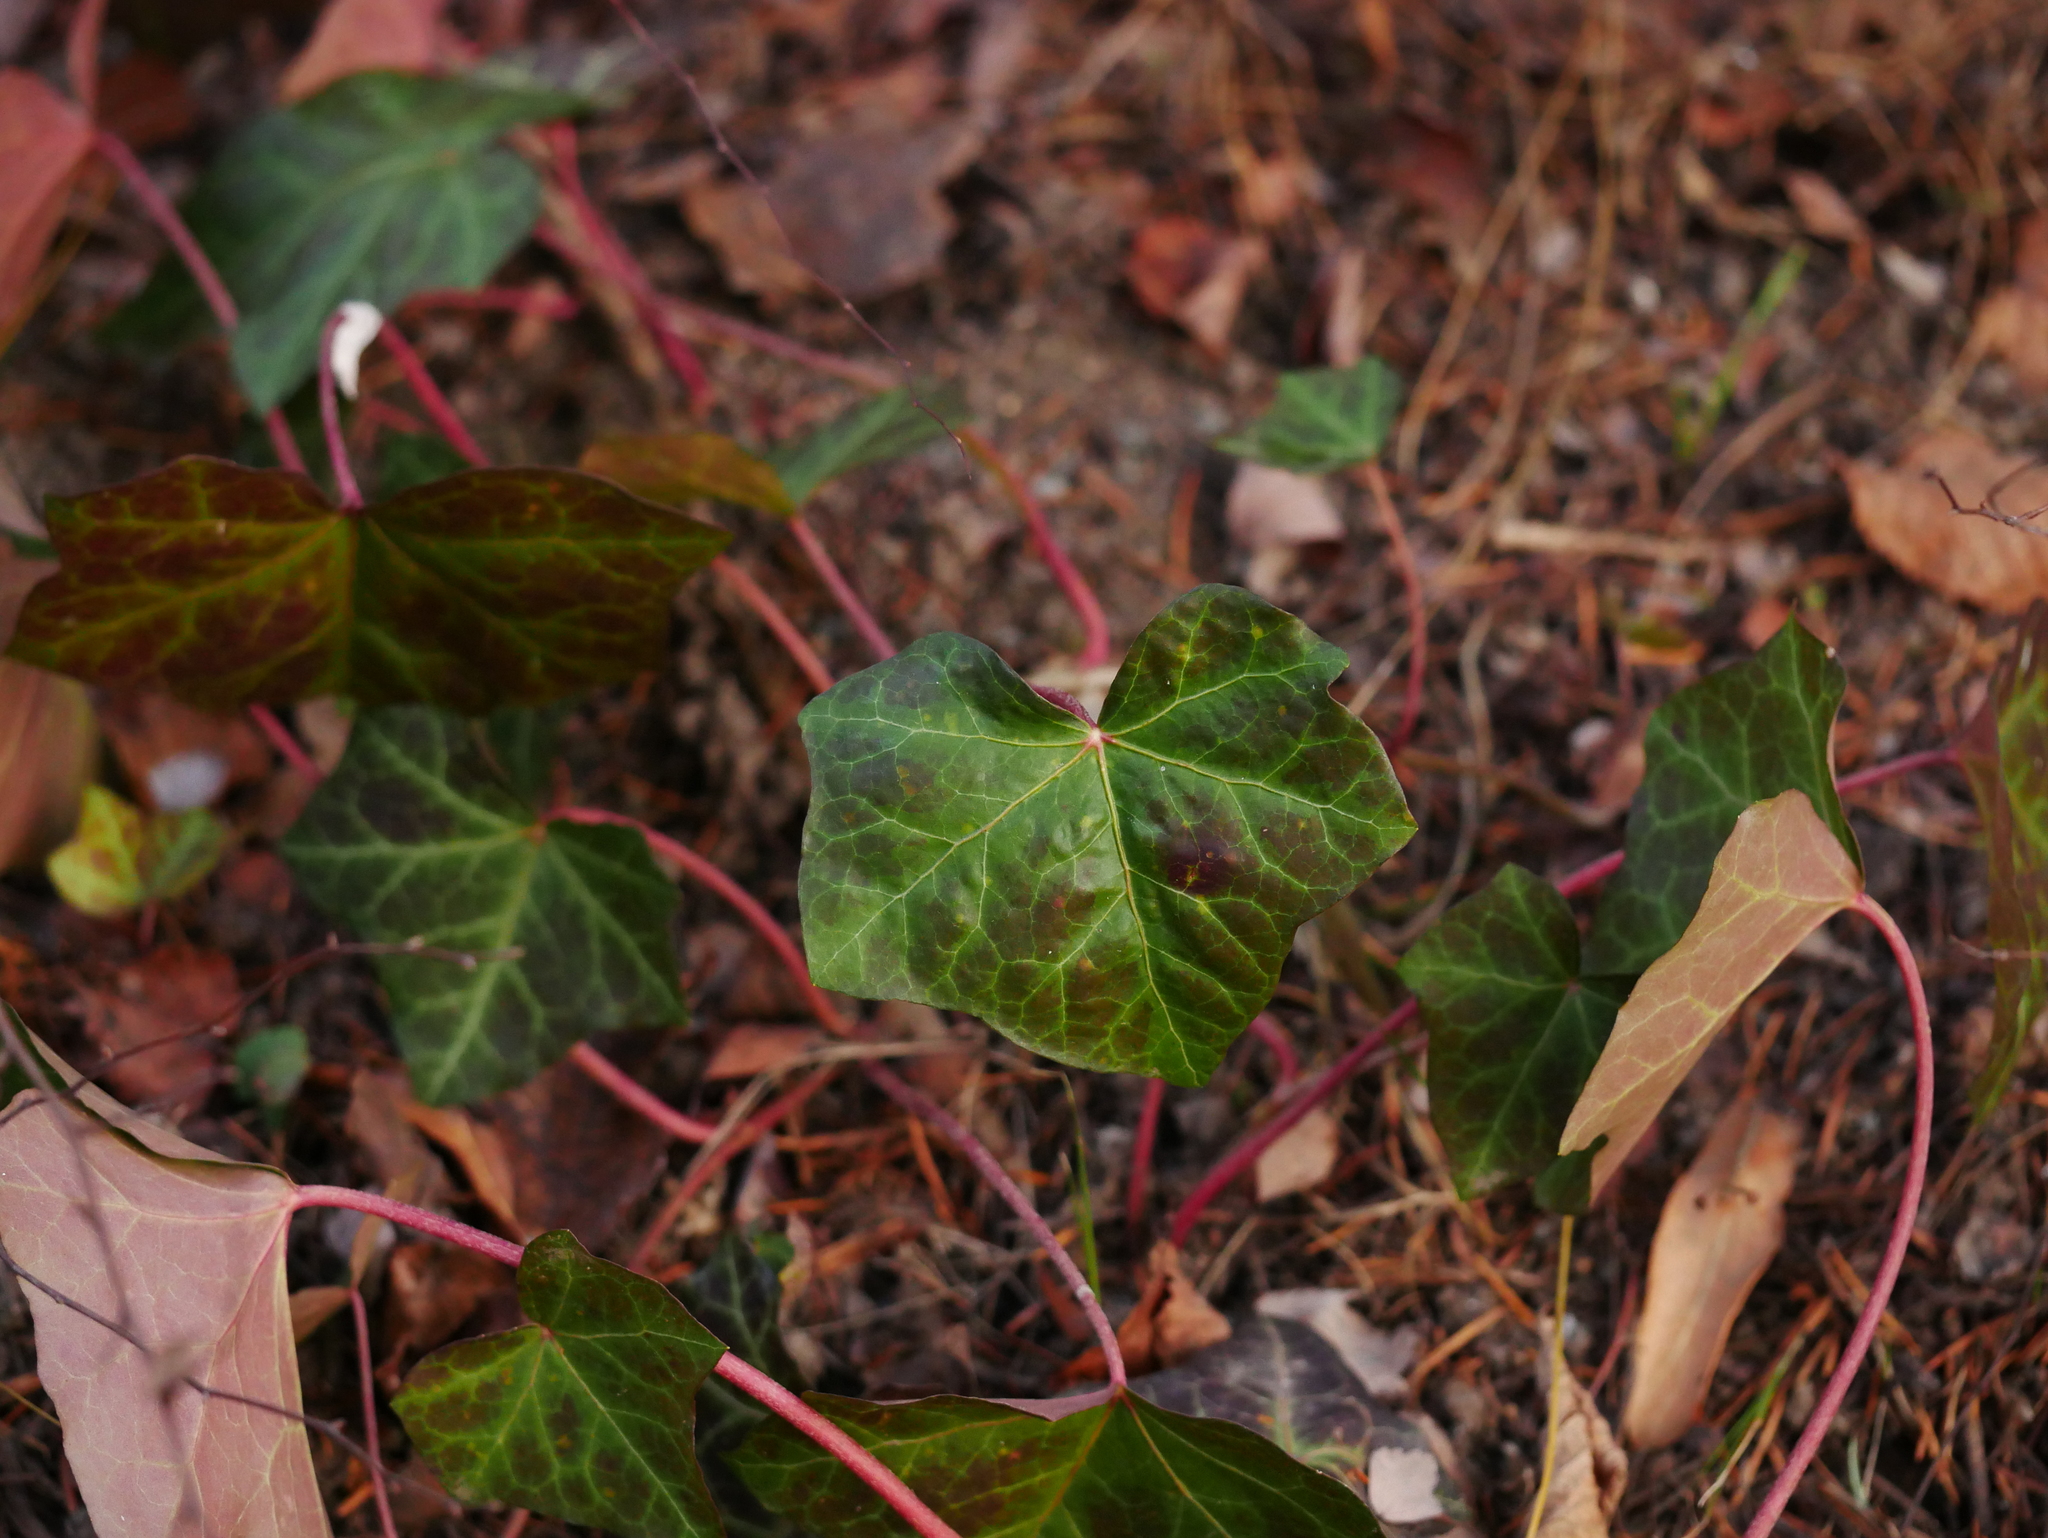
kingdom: Plantae
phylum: Tracheophyta
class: Magnoliopsida
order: Apiales
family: Araliaceae
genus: Hedera
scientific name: Hedera helix
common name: Ivy
